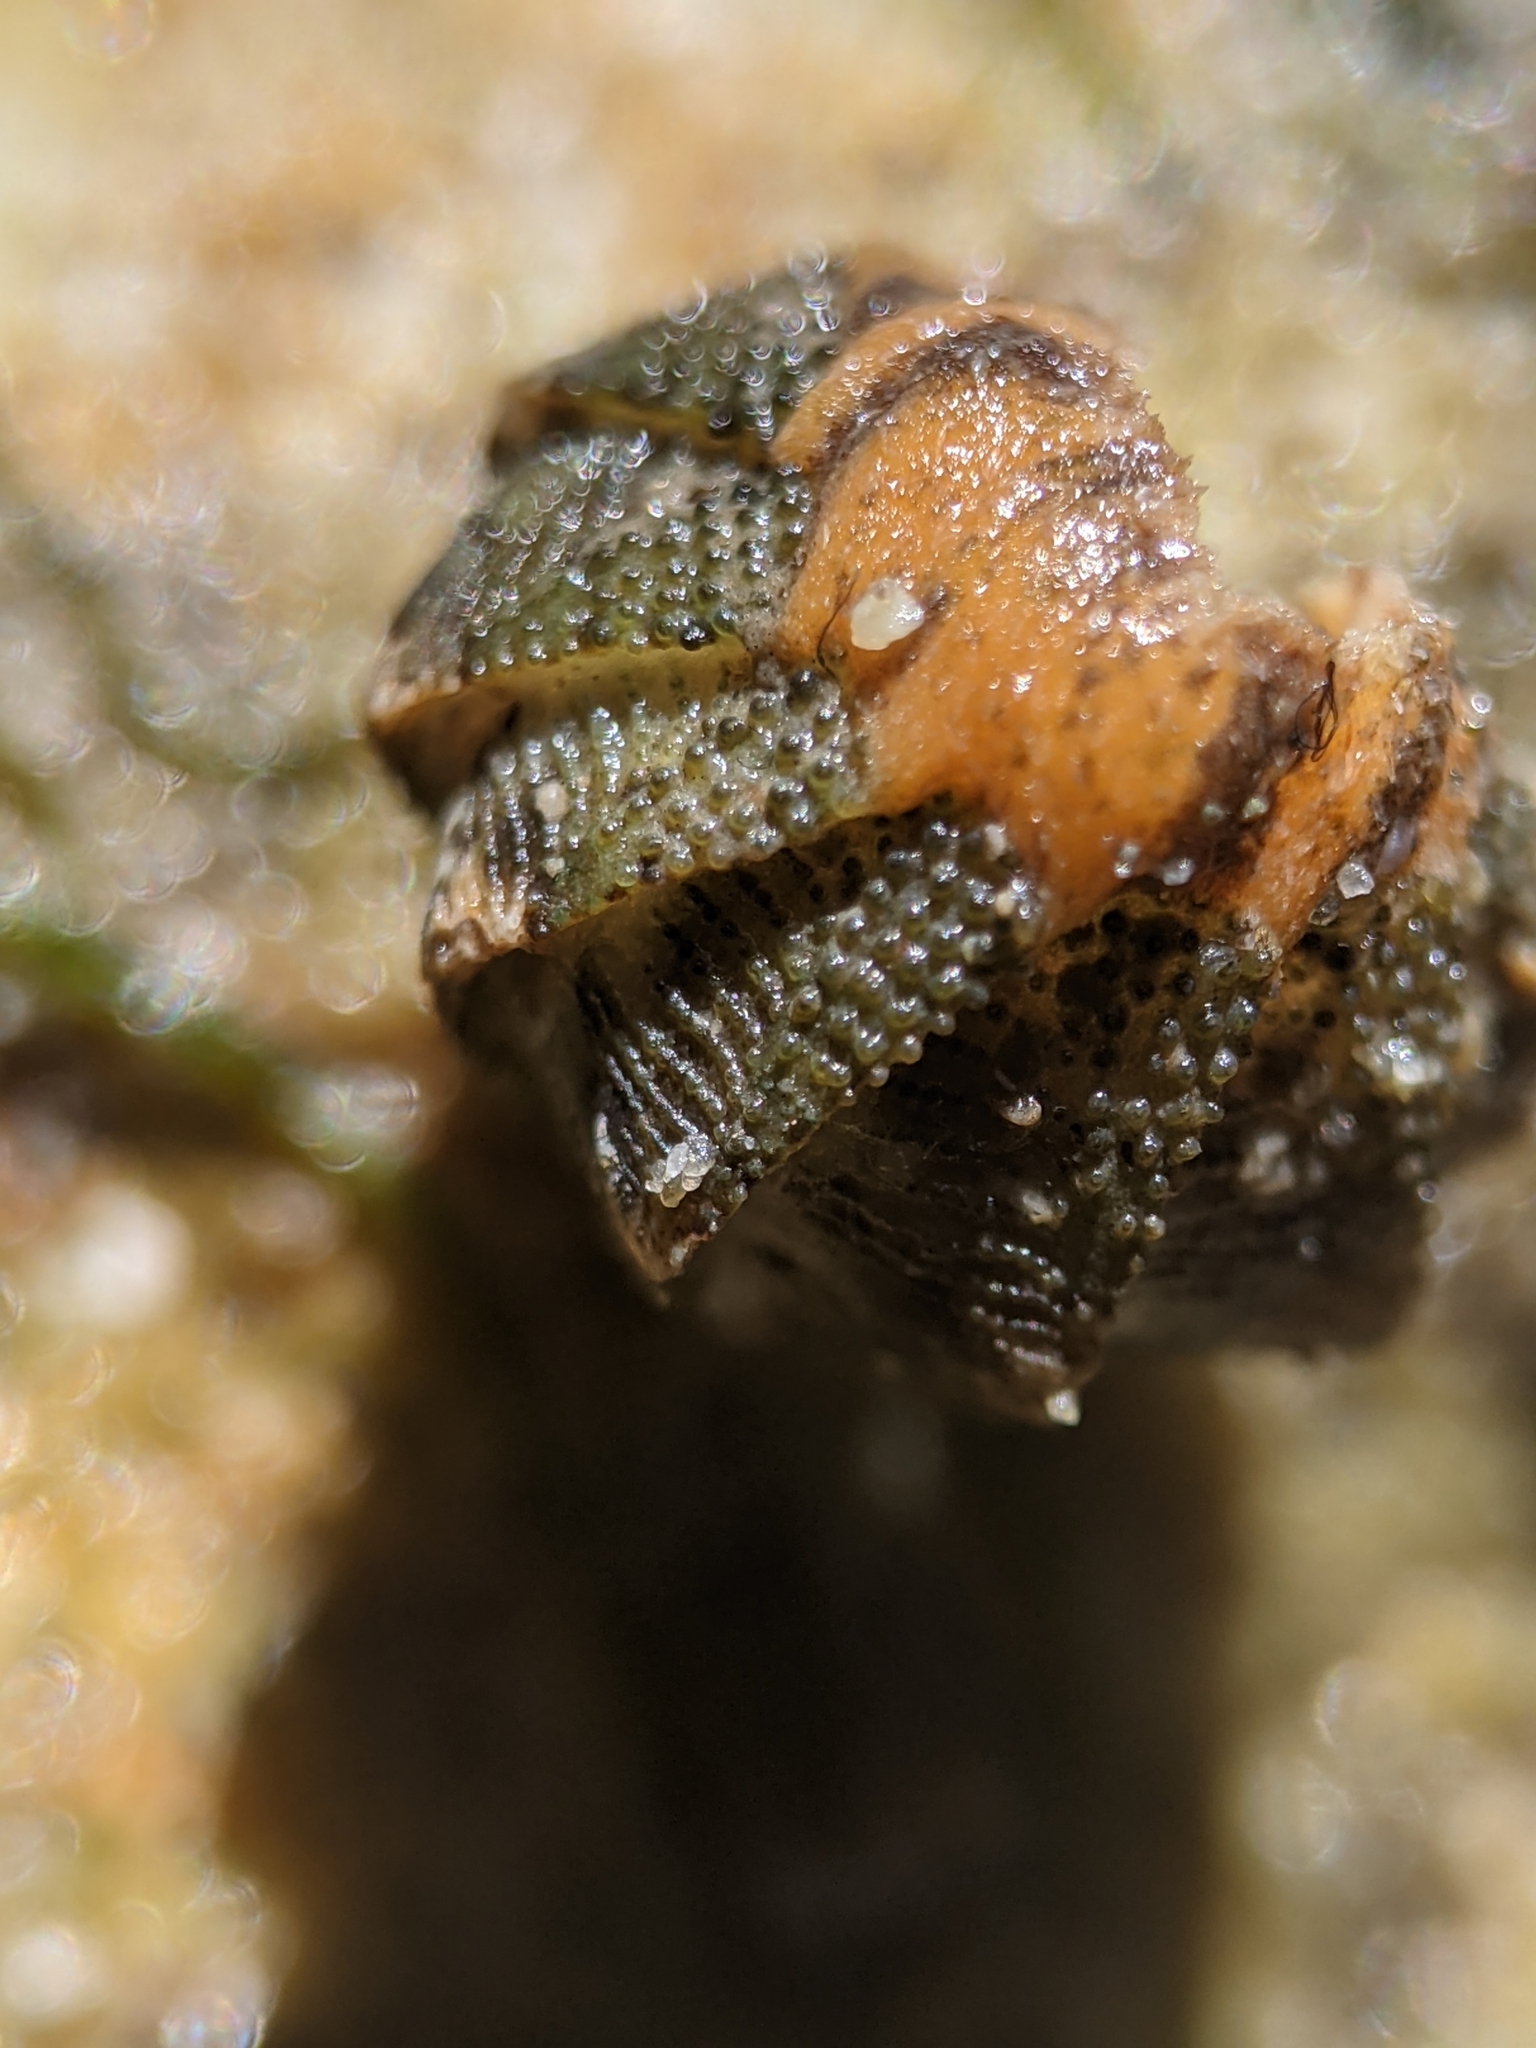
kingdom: Animalia
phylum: Mollusca
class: Polyplacophora
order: Chitonida
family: Chaetopleuridae
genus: Chaetopleura
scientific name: Chaetopleura gemma
